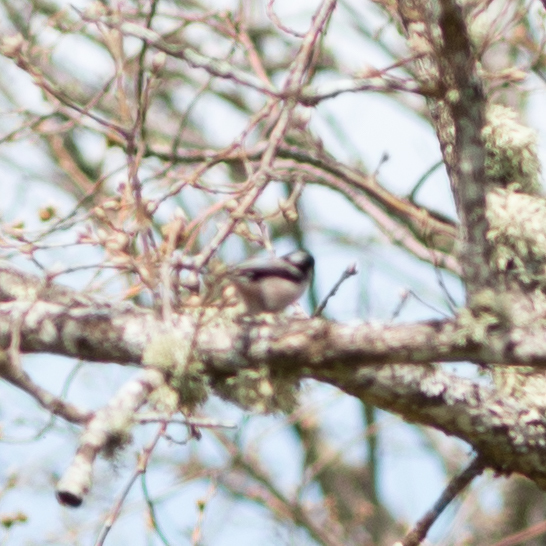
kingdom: Animalia
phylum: Chordata
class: Aves
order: Passeriformes
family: Aegithalidae
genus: Aegithalos
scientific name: Aegithalos caudatus
